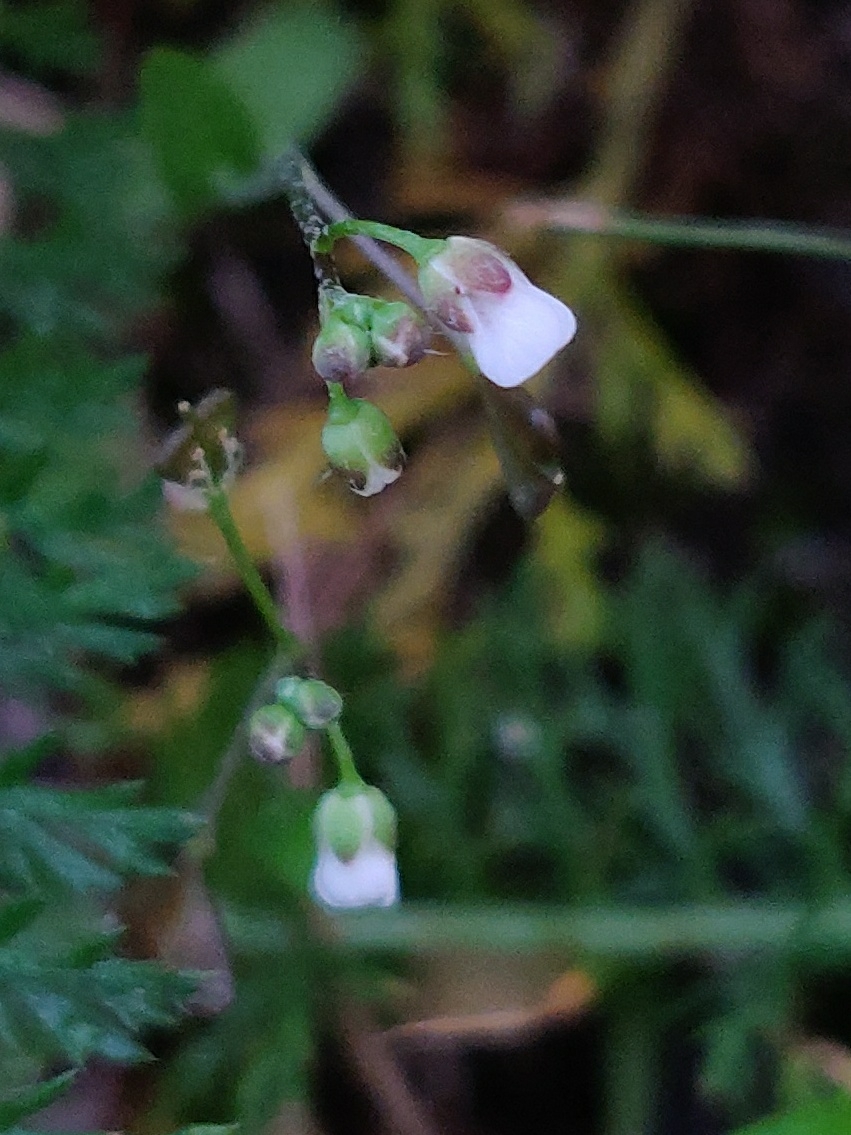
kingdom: Plantae
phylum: Tracheophyta
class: Magnoliopsida
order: Brassicales
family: Brassicaceae
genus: Capsella
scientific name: Capsella bursa-pastoris
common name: Shepherd's purse
